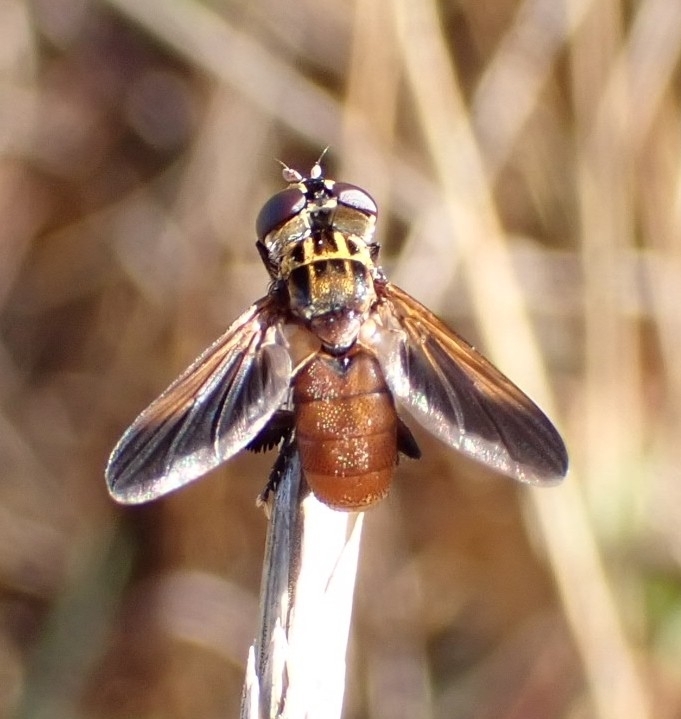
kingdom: Animalia
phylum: Arthropoda
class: Insecta
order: Diptera
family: Tachinidae
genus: Trichopoda
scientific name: Trichopoda pictipennis
